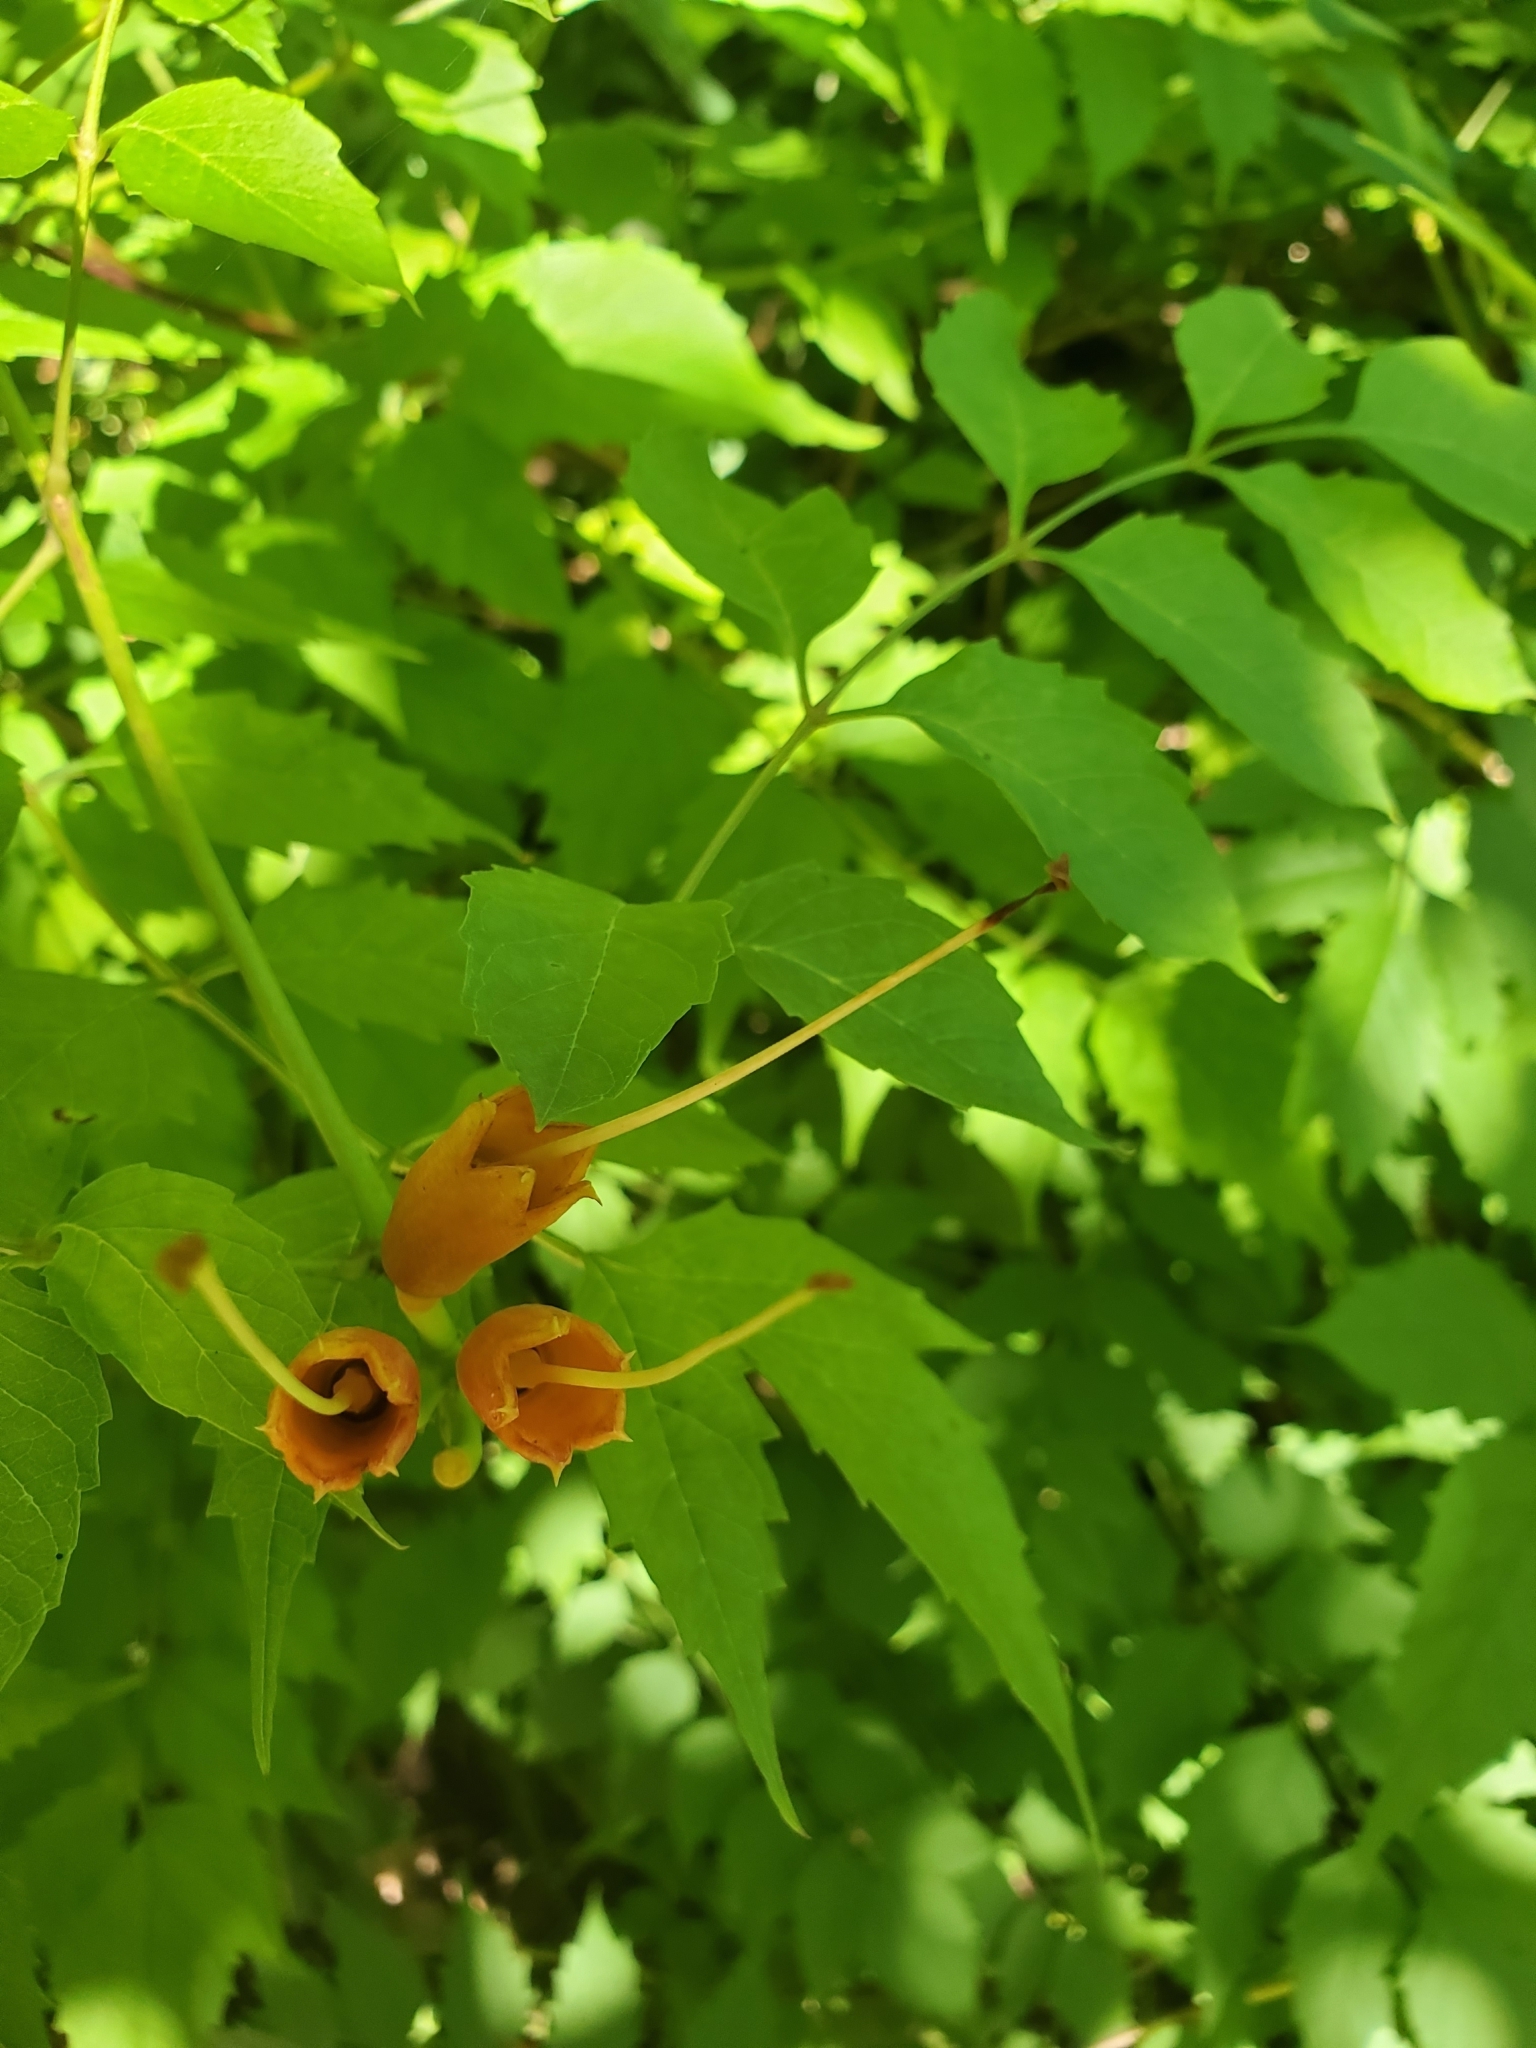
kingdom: Plantae
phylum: Tracheophyta
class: Magnoliopsida
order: Lamiales
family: Bignoniaceae
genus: Campsis
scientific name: Campsis radicans
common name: Trumpet-creeper
